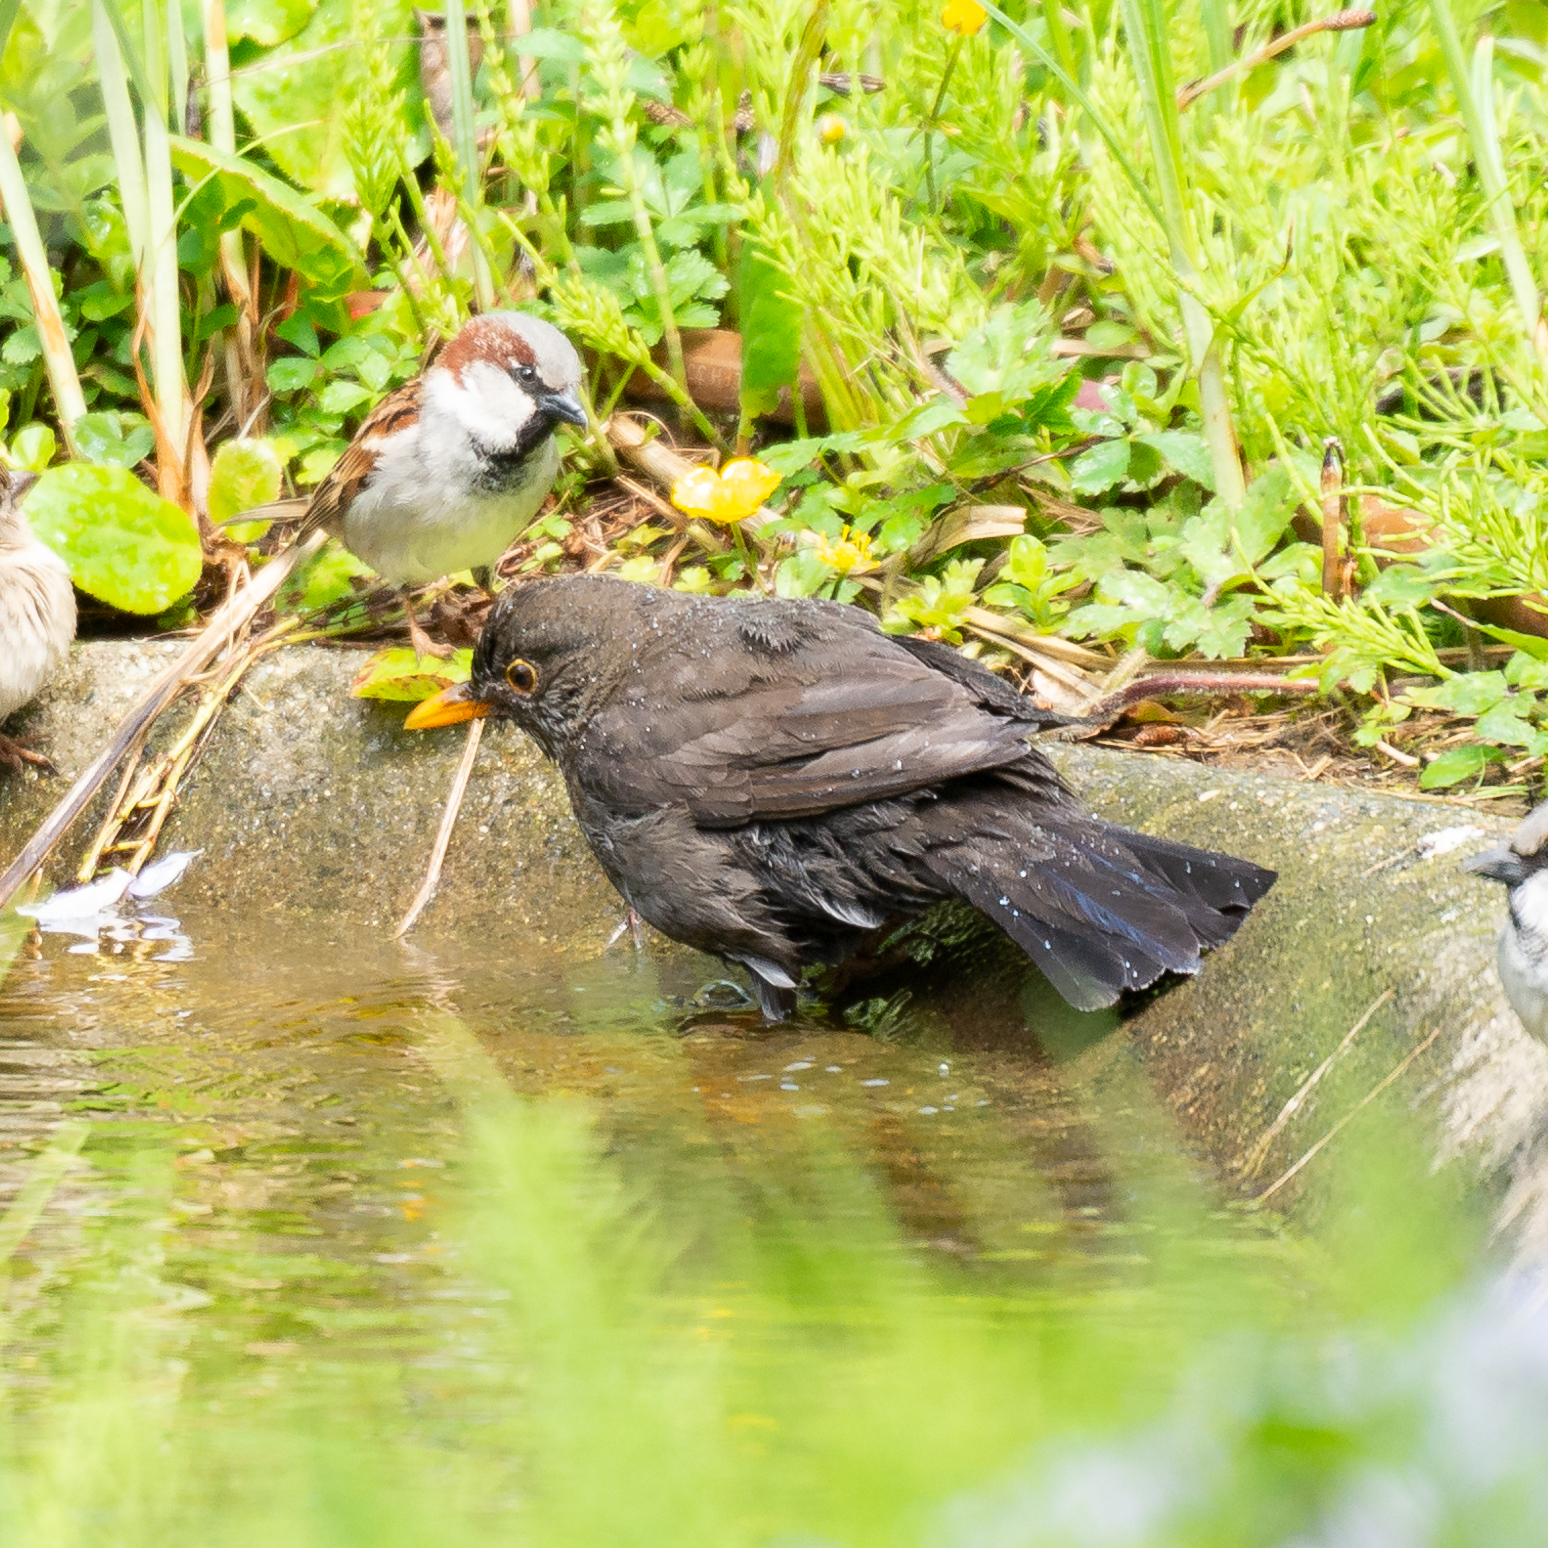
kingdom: Animalia
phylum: Chordata
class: Aves
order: Passeriformes
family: Turdidae
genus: Turdus
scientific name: Turdus merula
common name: Common blackbird
